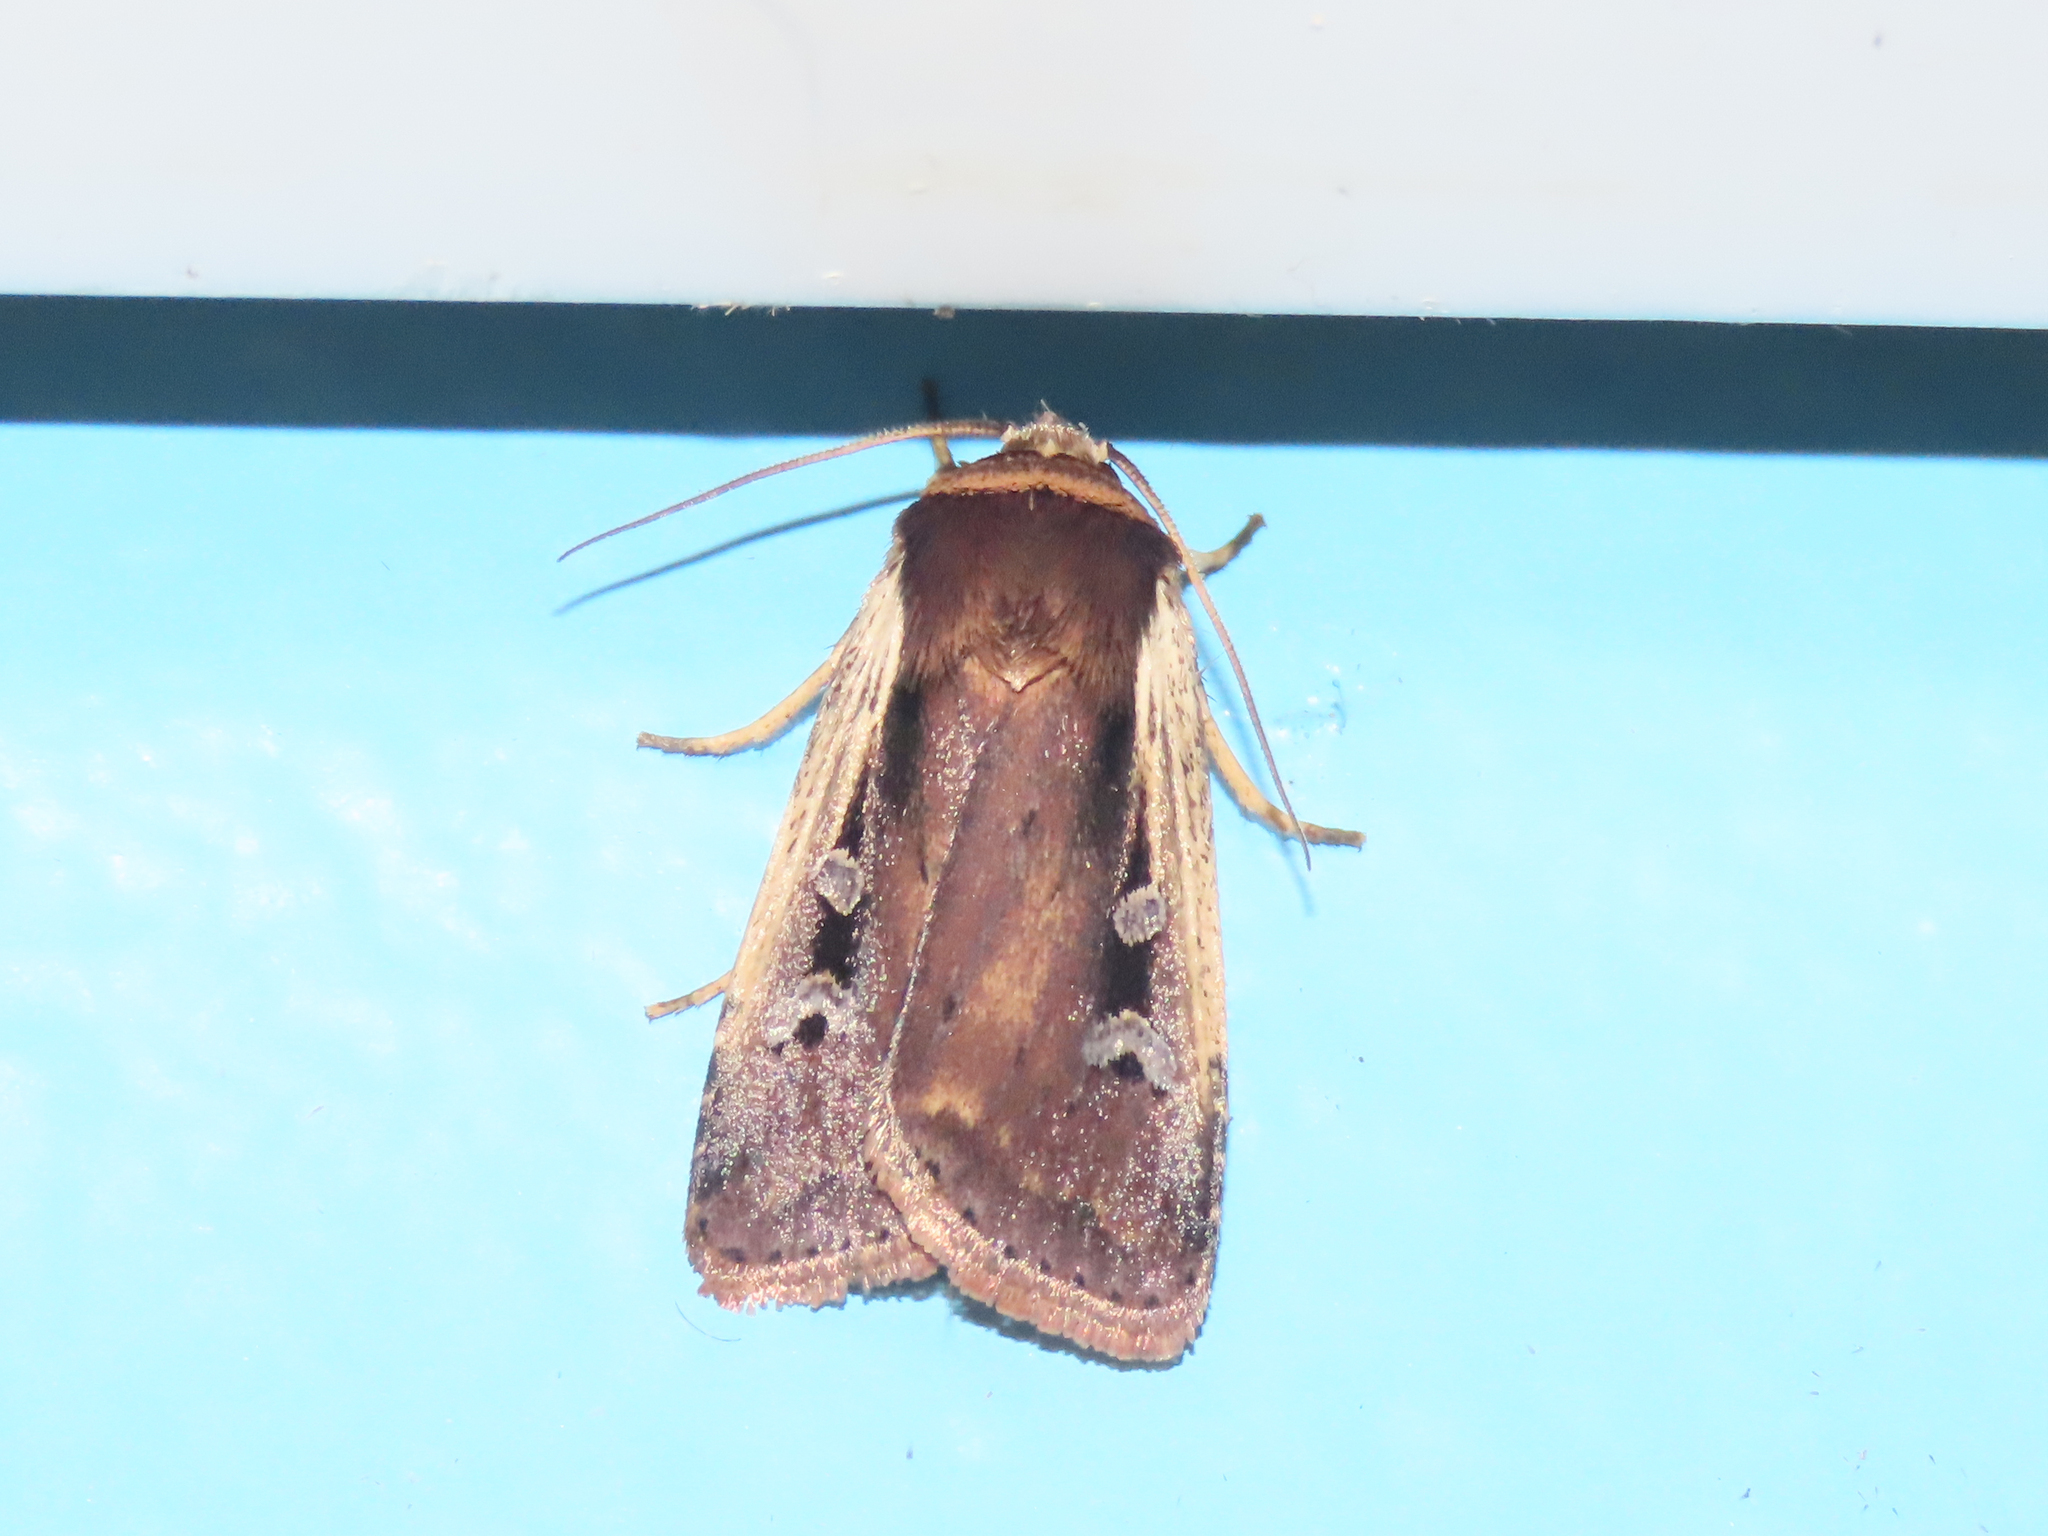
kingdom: Animalia
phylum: Arthropoda
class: Insecta
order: Lepidoptera
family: Noctuidae
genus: Ochropleura
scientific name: Ochropleura implecta
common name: Flame-shouldered dart
